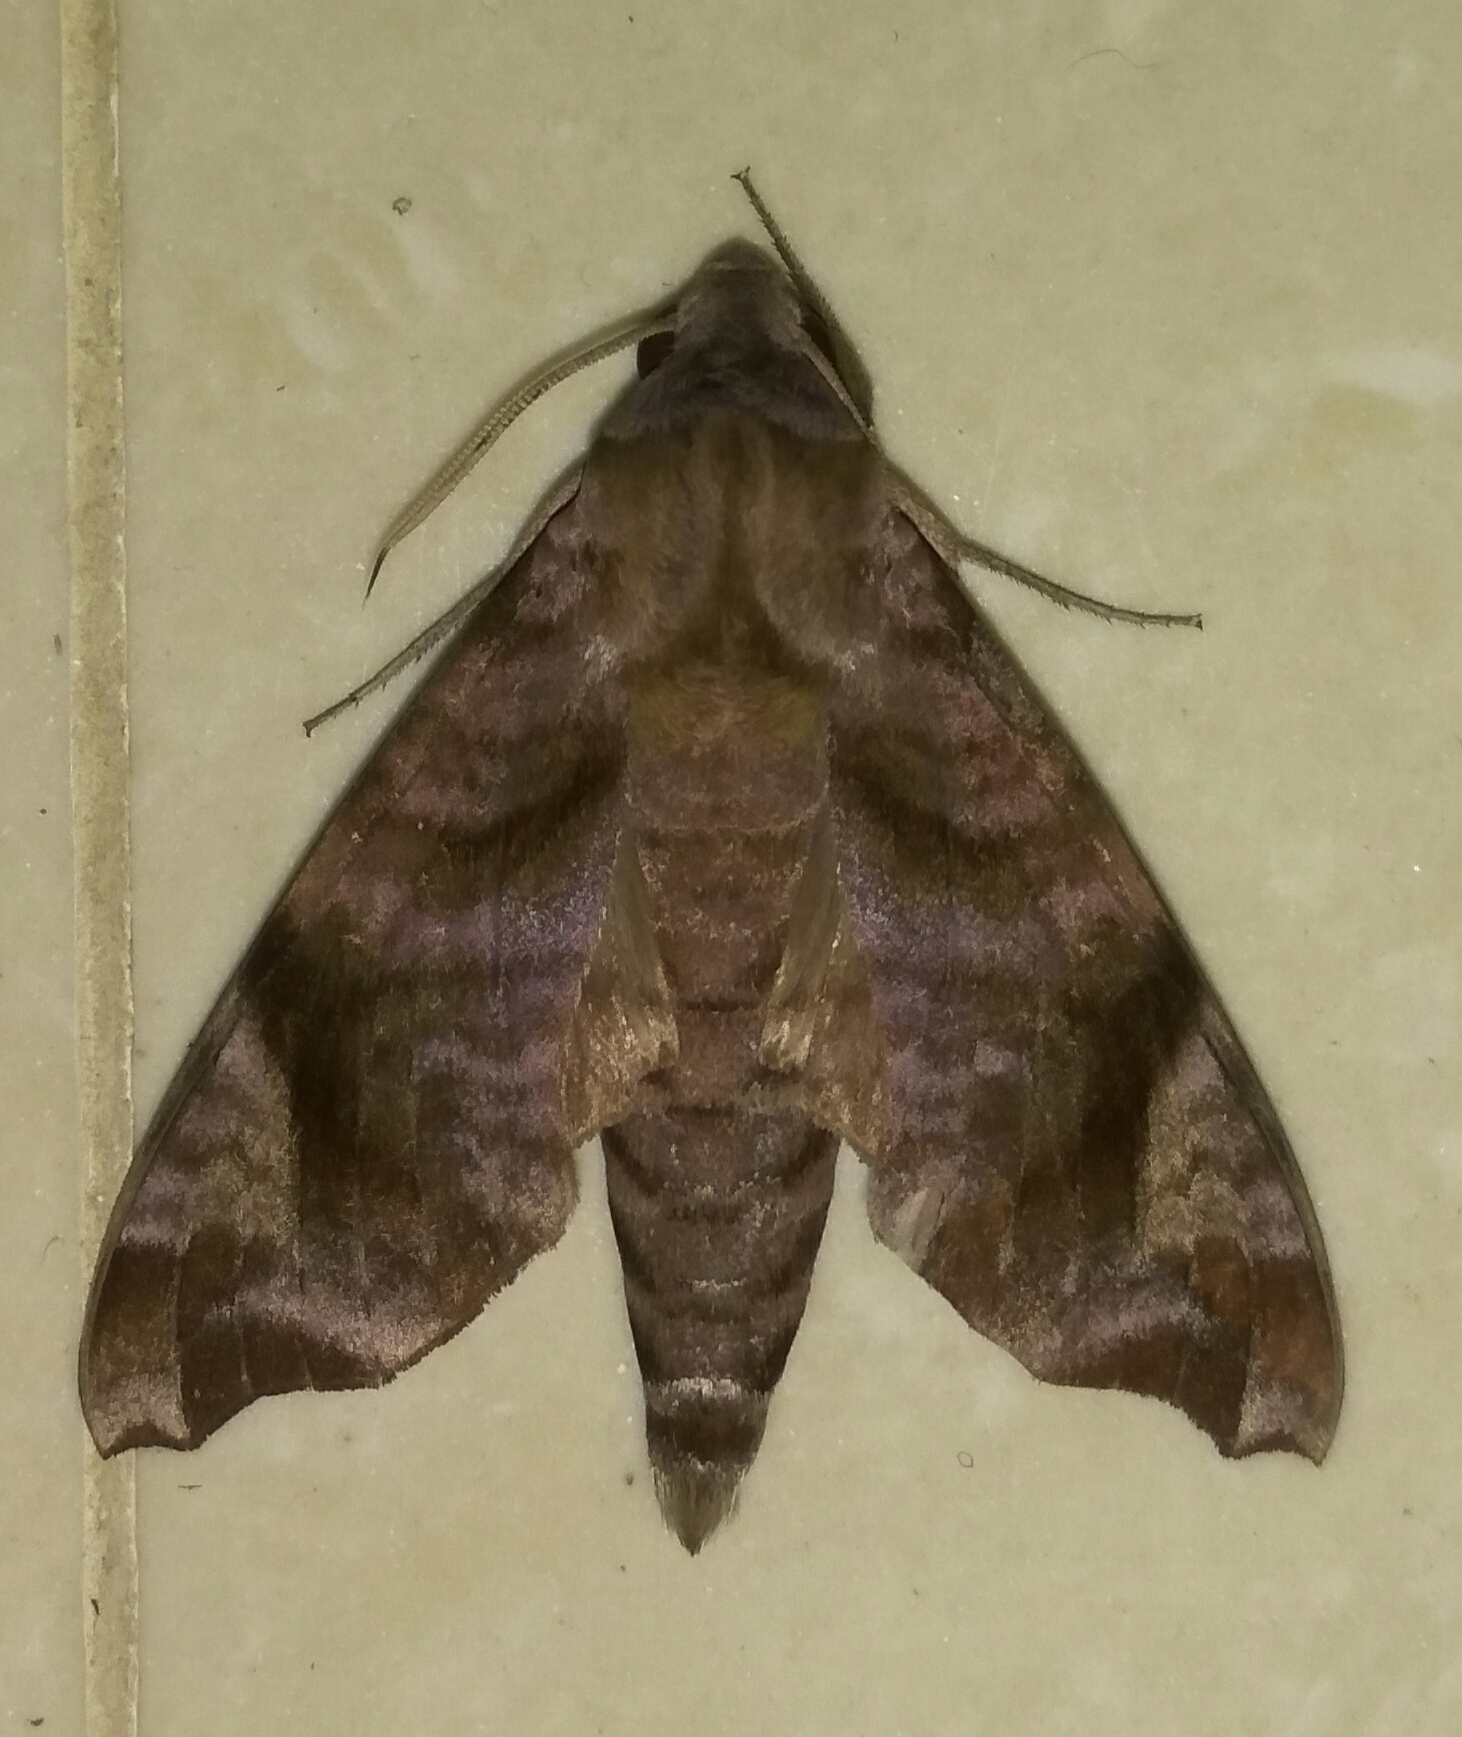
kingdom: Animalia
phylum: Arthropoda
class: Insecta
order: Lepidoptera
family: Sphingidae
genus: Acosmeryx
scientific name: Acosmeryx anceus
